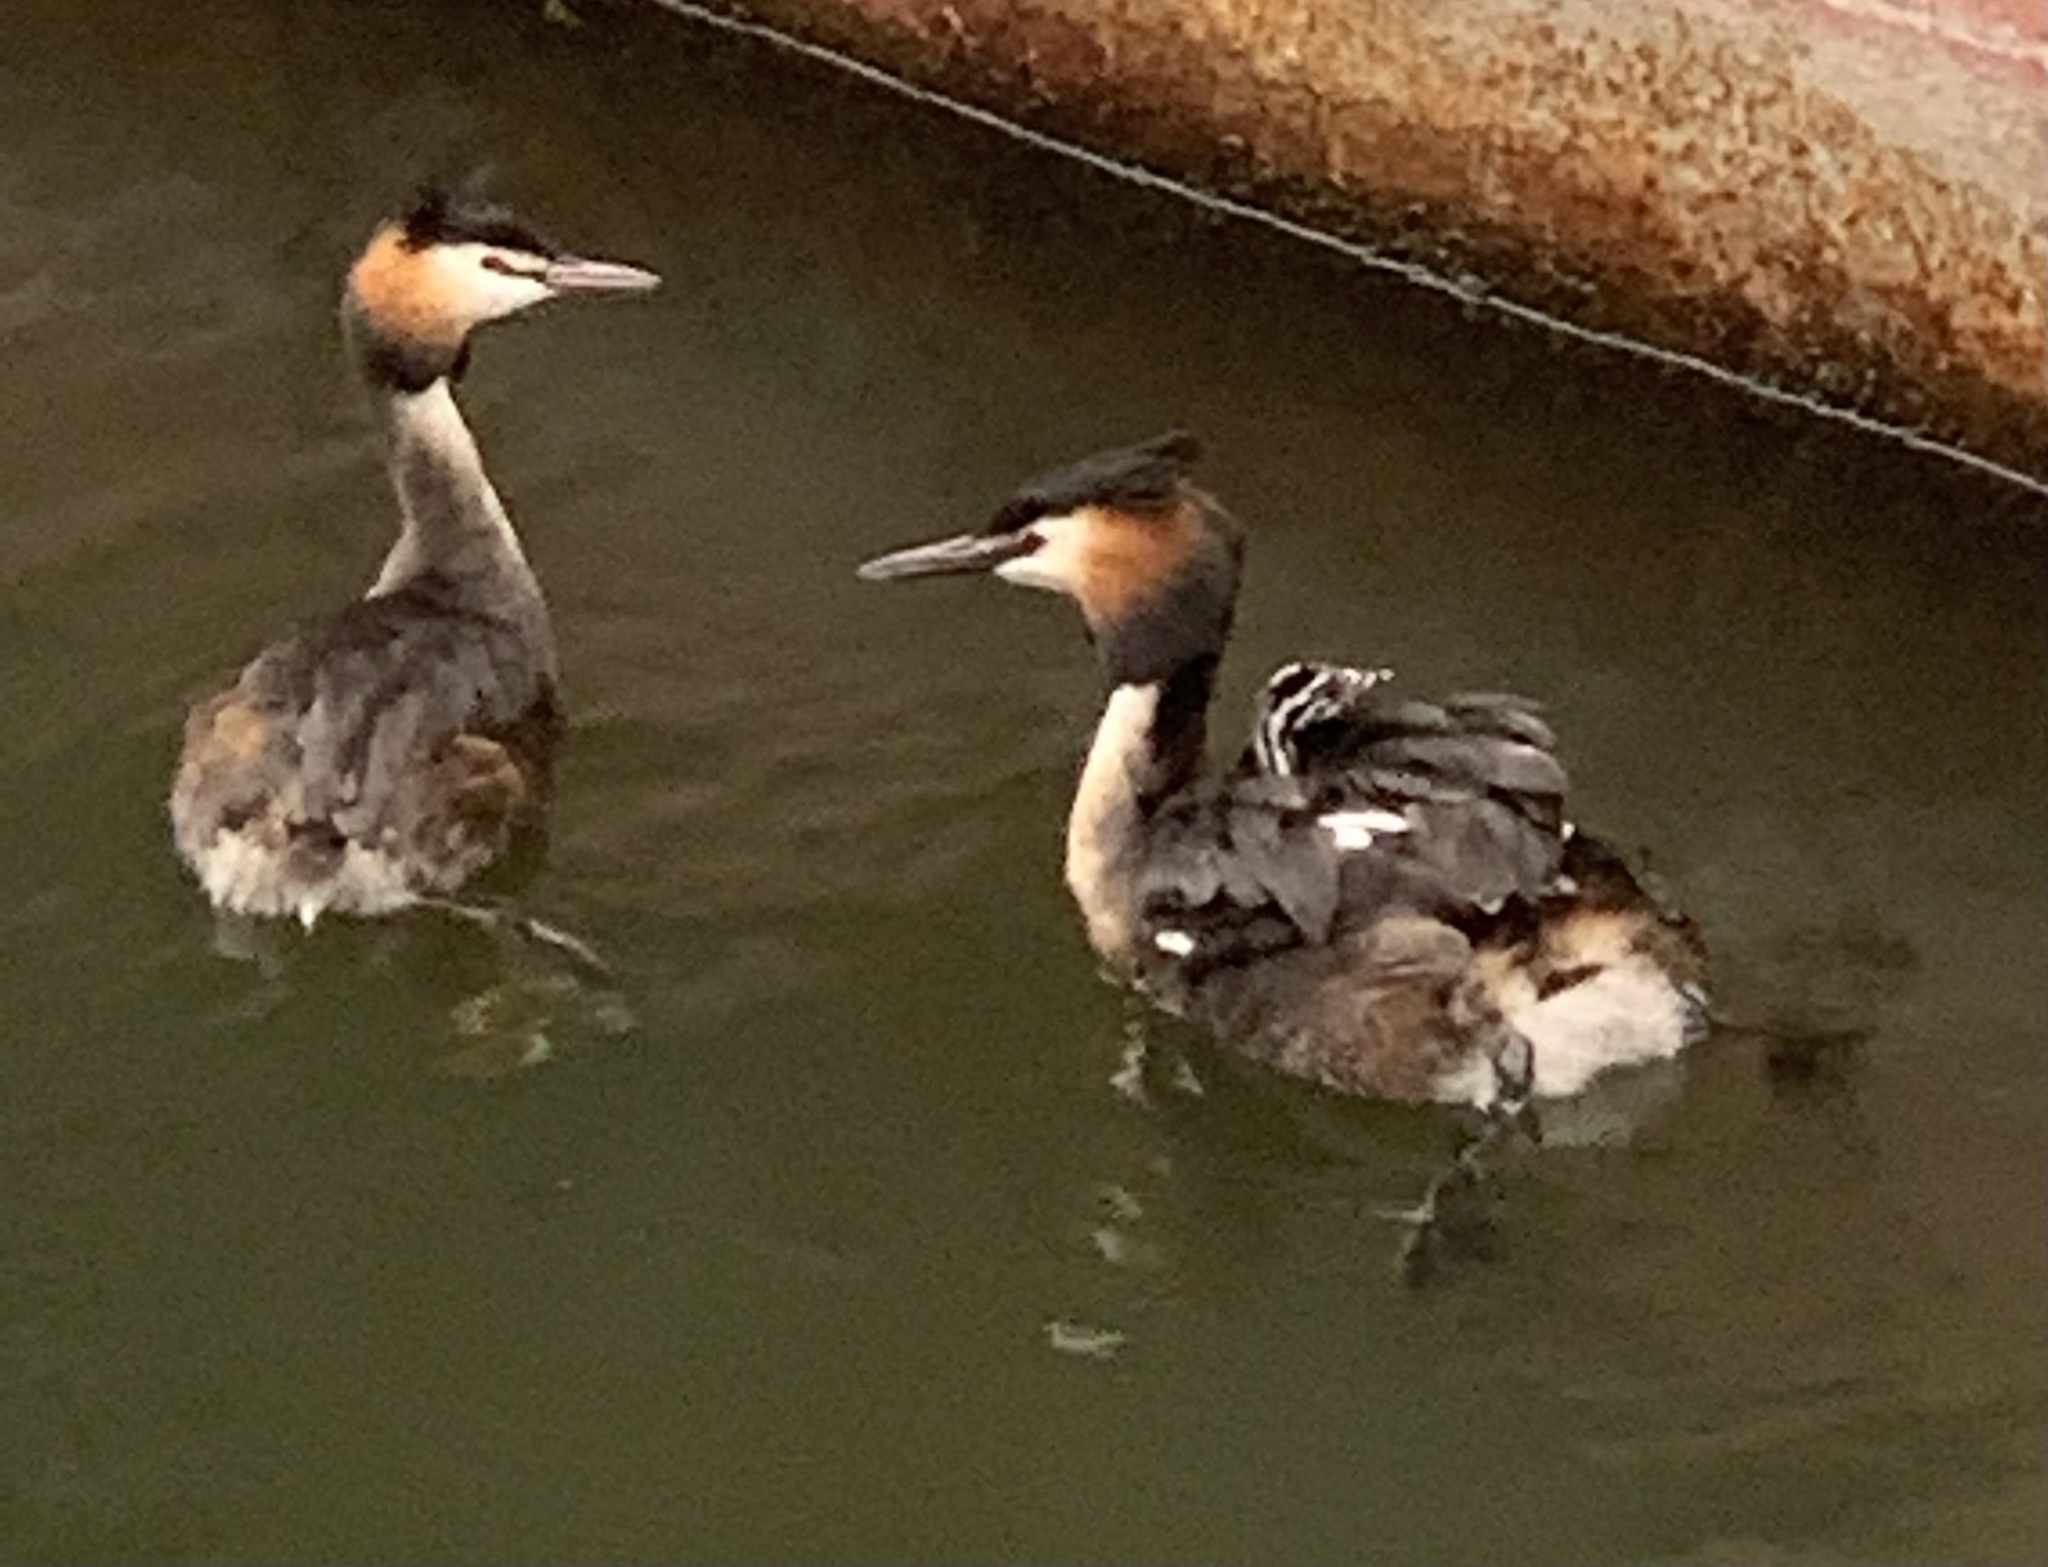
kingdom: Animalia
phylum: Chordata
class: Aves
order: Podicipediformes
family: Podicipedidae
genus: Podiceps
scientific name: Podiceps cristatus
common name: Great crested grebe
